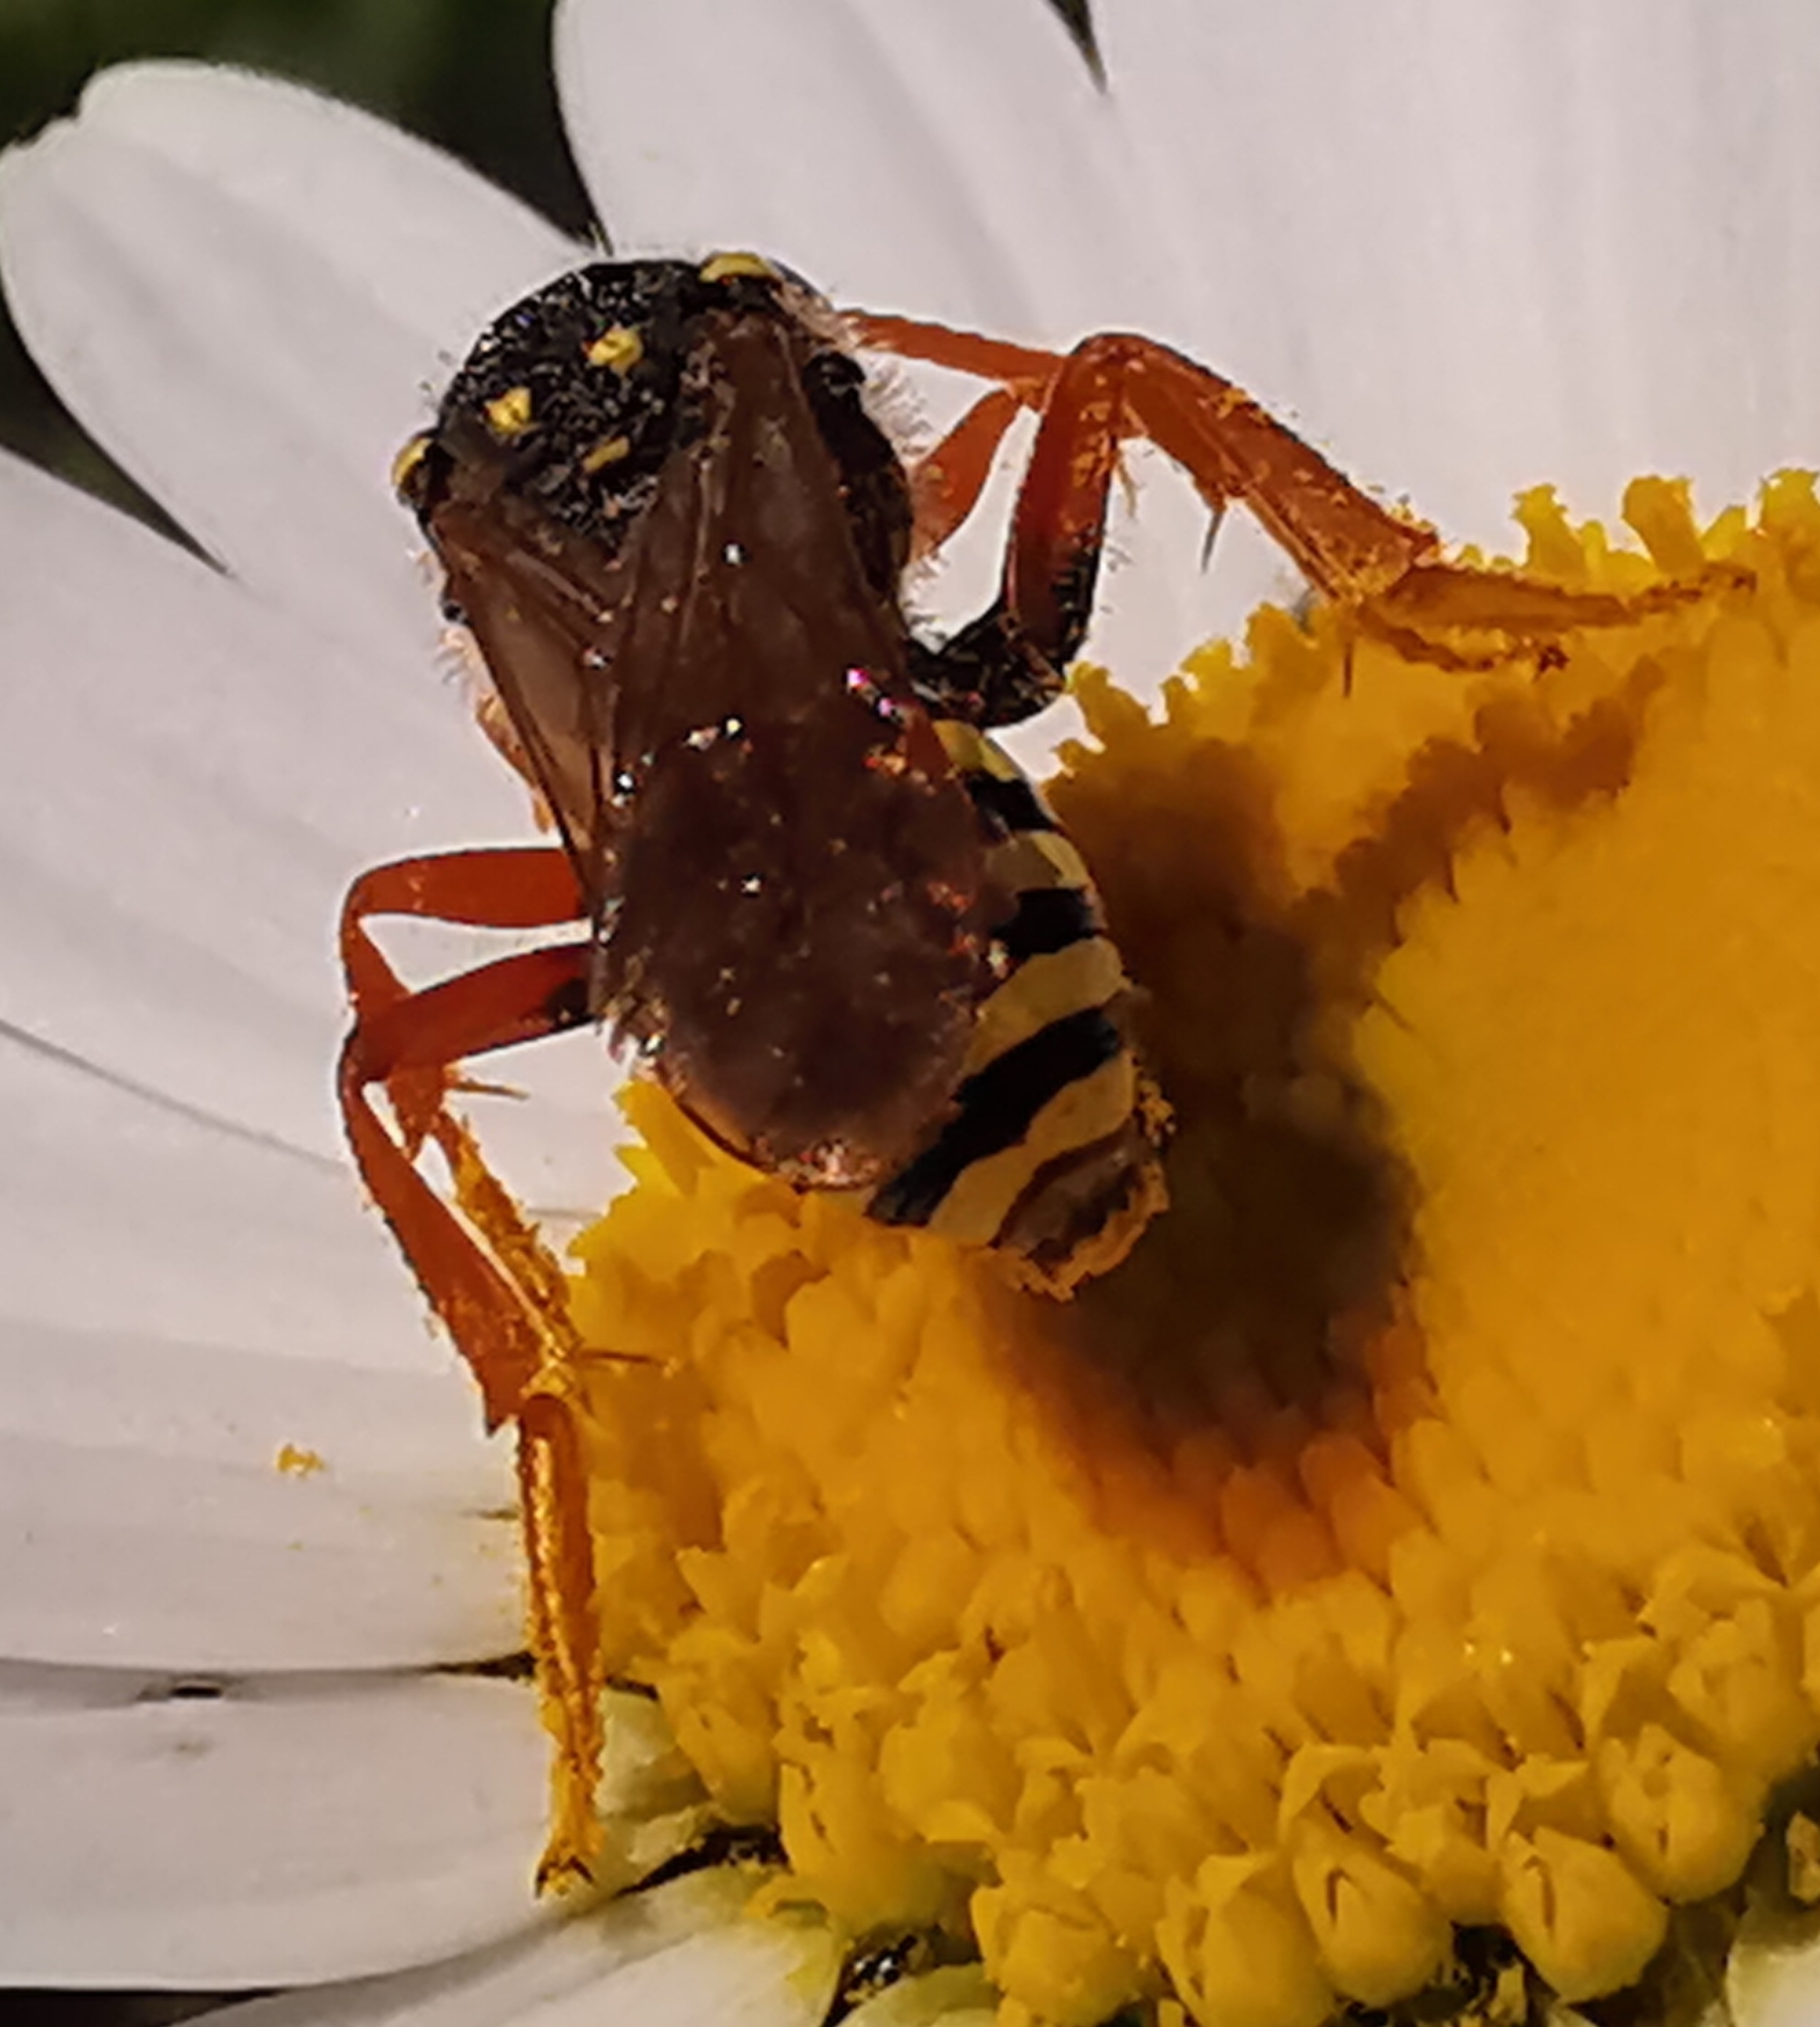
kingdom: Animalia
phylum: Arthropoda
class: Insecta
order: Hymenoptera
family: Apidae
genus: Nomada
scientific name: Nomada goodeniana
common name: Gooden's nomad bee
